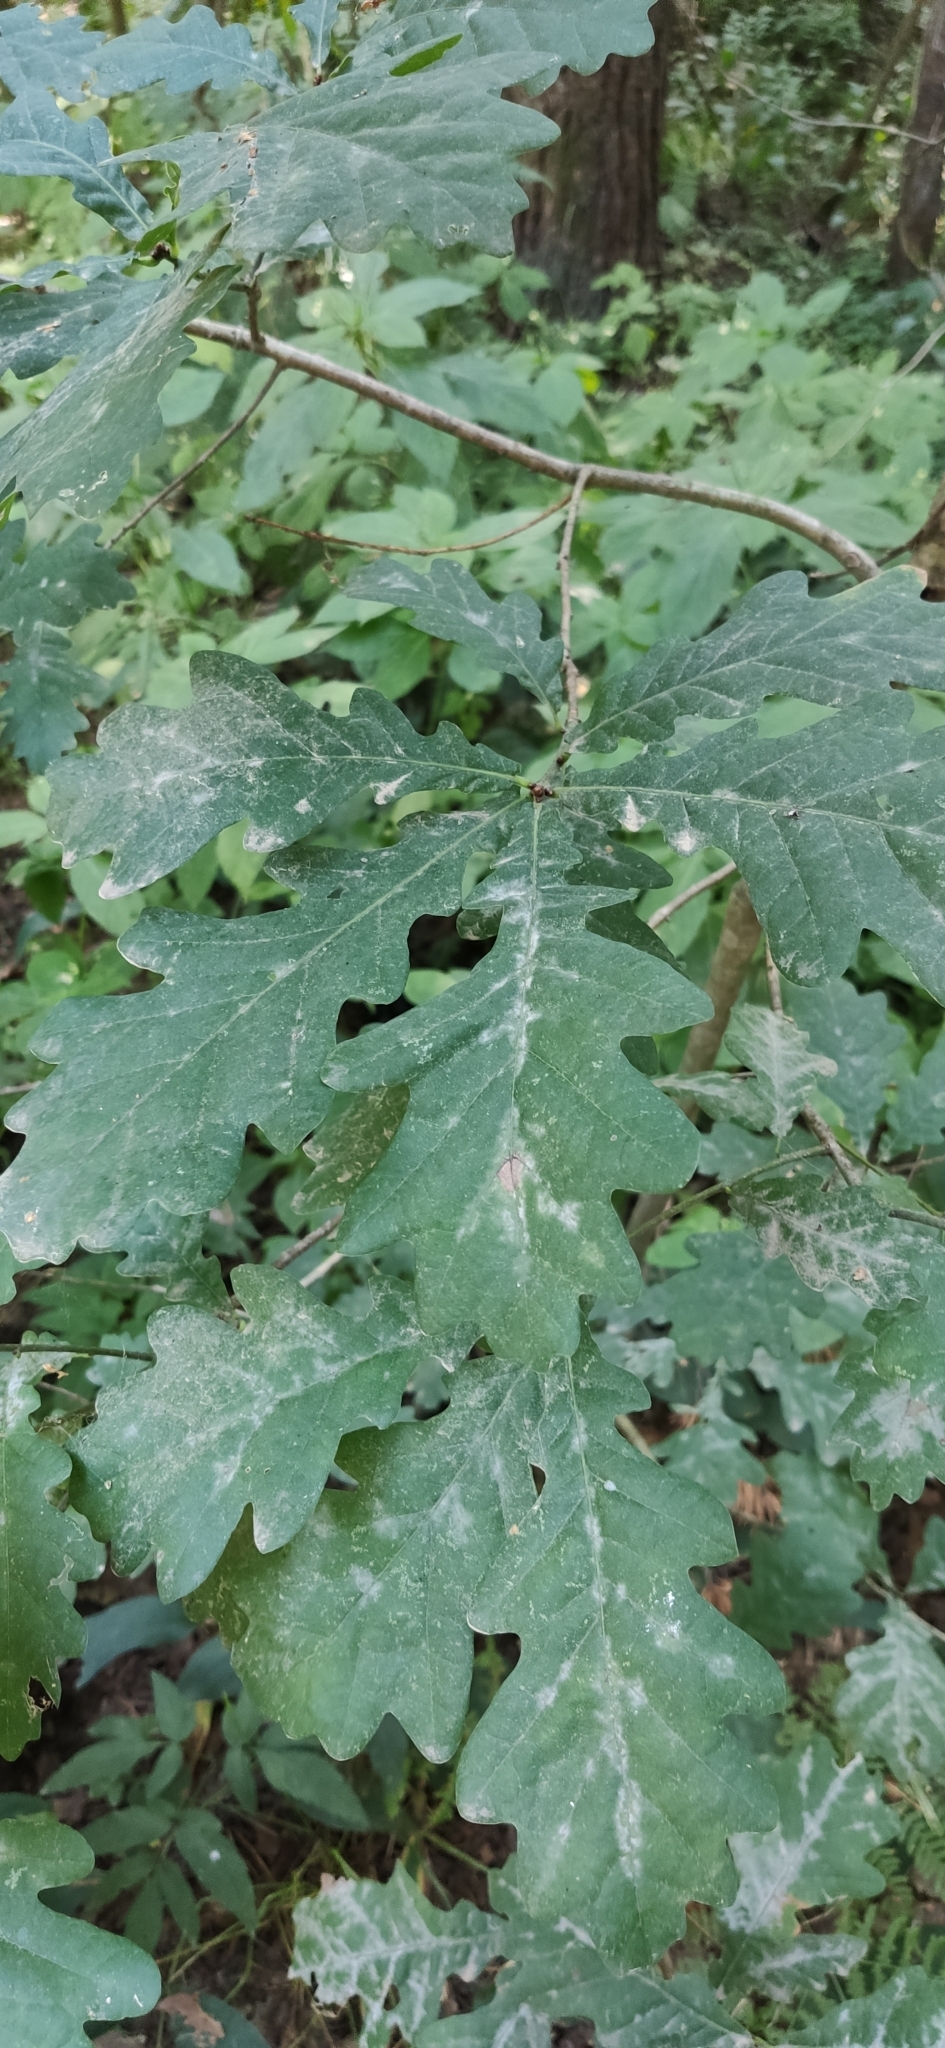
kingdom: Plantae
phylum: Tracheophyta
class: Magnoliopsida
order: Fagales
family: Fagaceae
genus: Quercus
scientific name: Quercus robur
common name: Pedunculate oak
